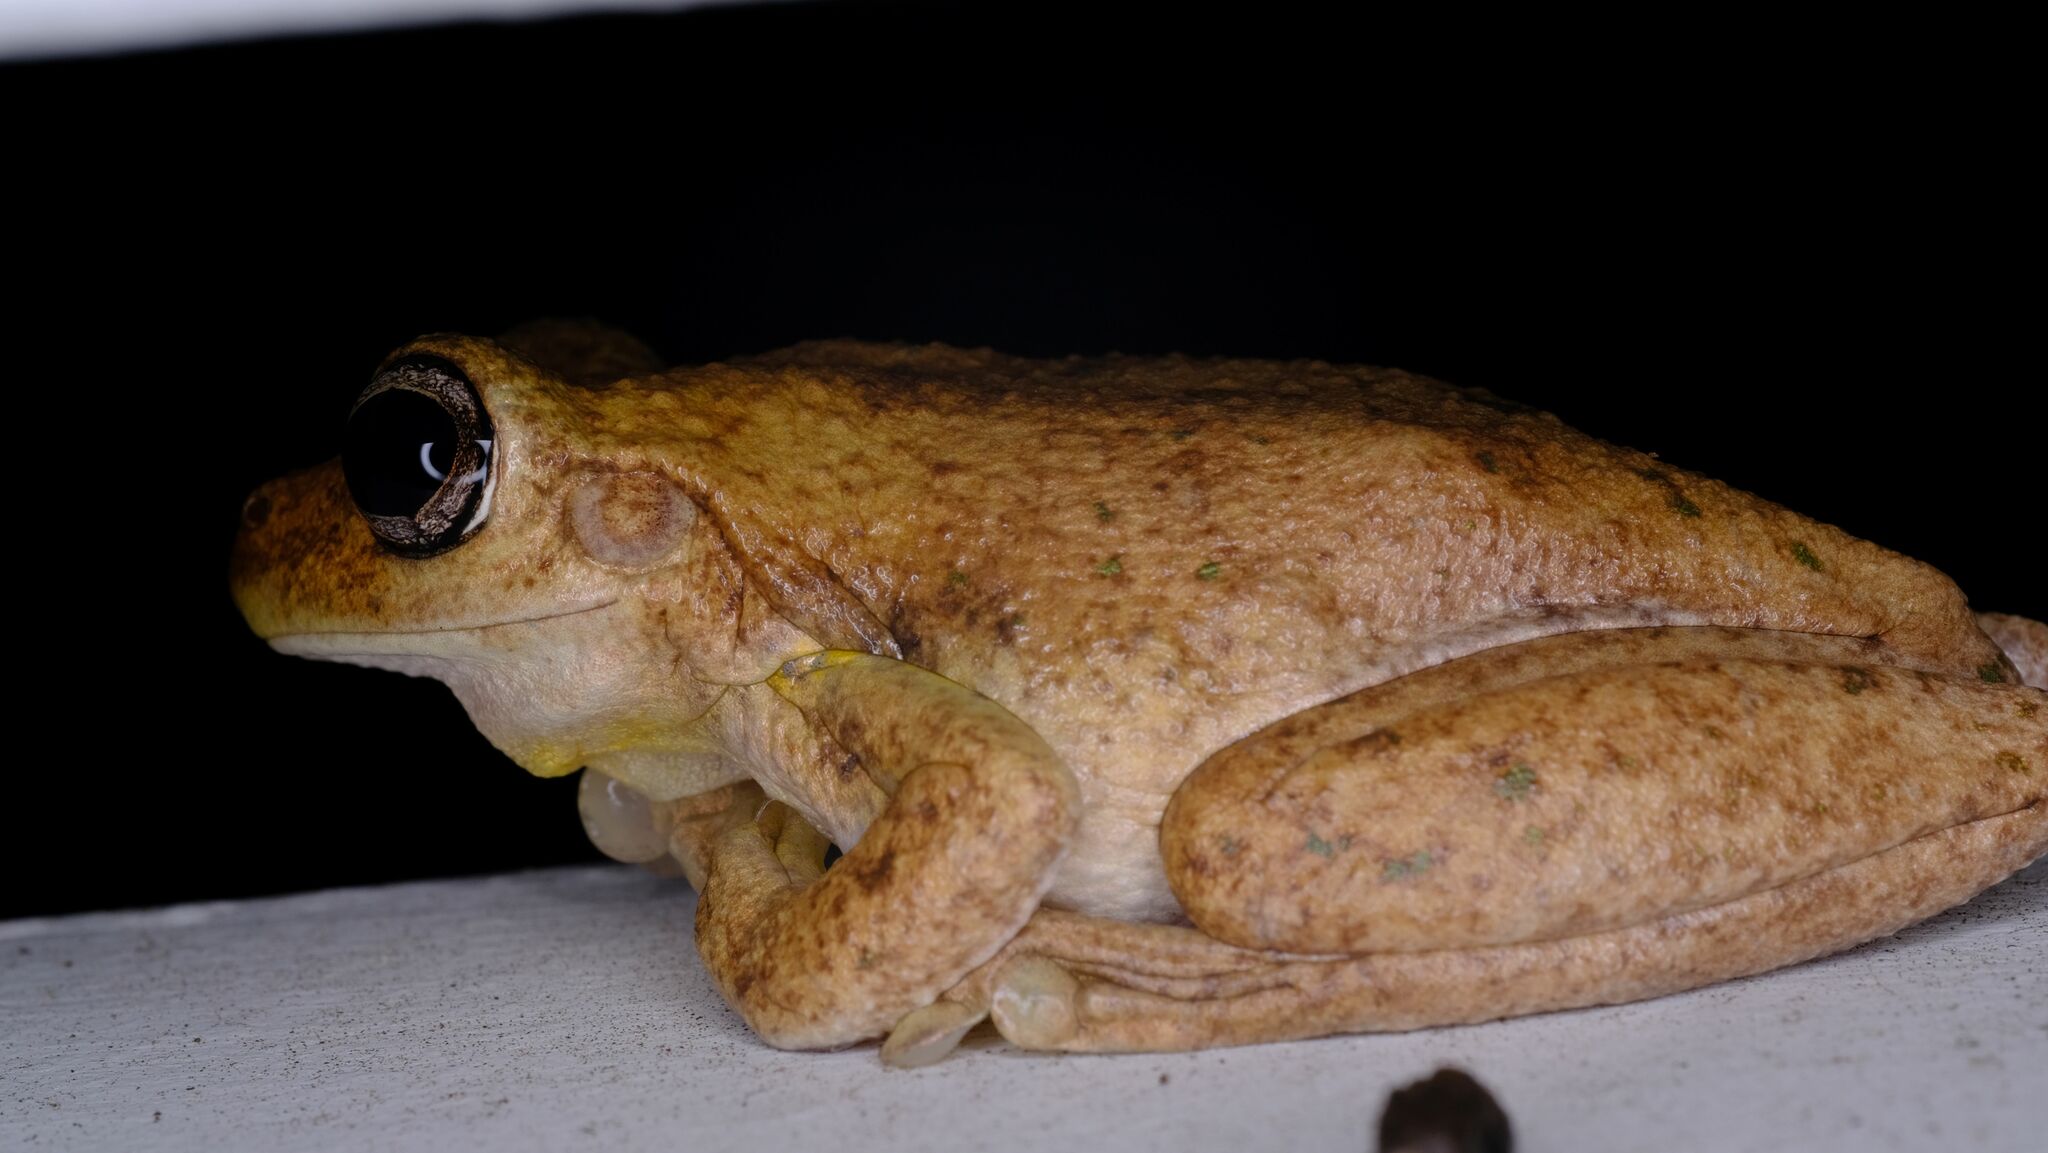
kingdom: Animalia
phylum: Chordata
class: Amphibia
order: Anura
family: Pelodryadidae
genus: Litoria
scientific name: Litoria peronii
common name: Emerald spotted treefrog
